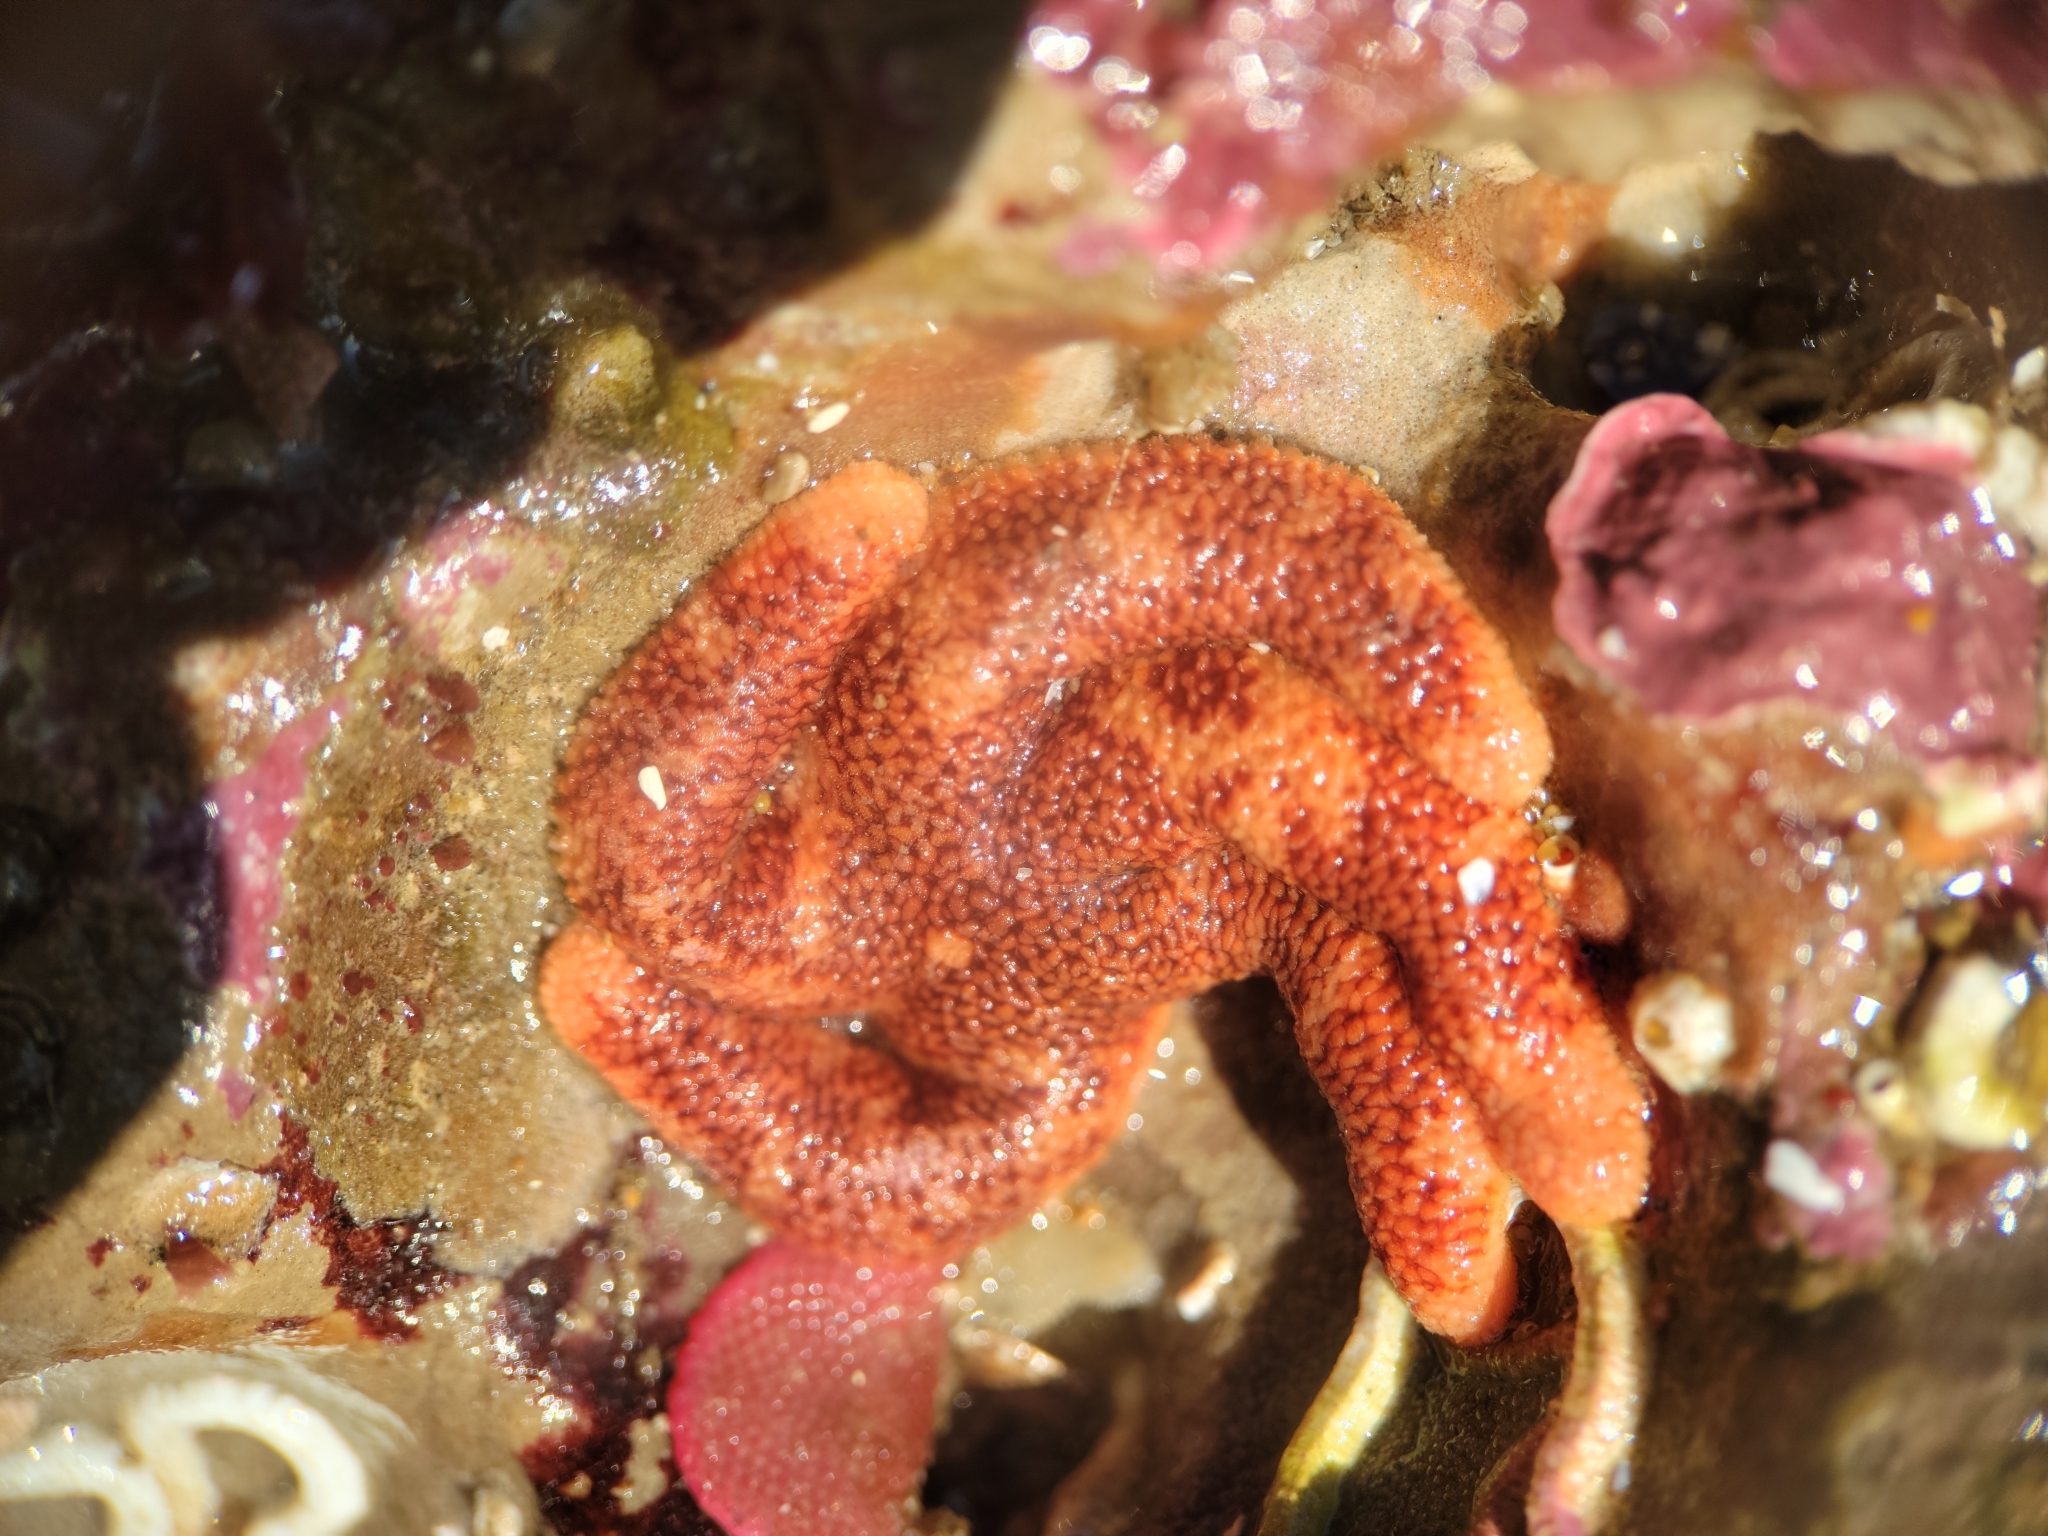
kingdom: Animalia
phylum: Echinodermata
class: Asteroidea
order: Spinulosida
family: Echinasteridae
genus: Henricia
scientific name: Henricia pumila
